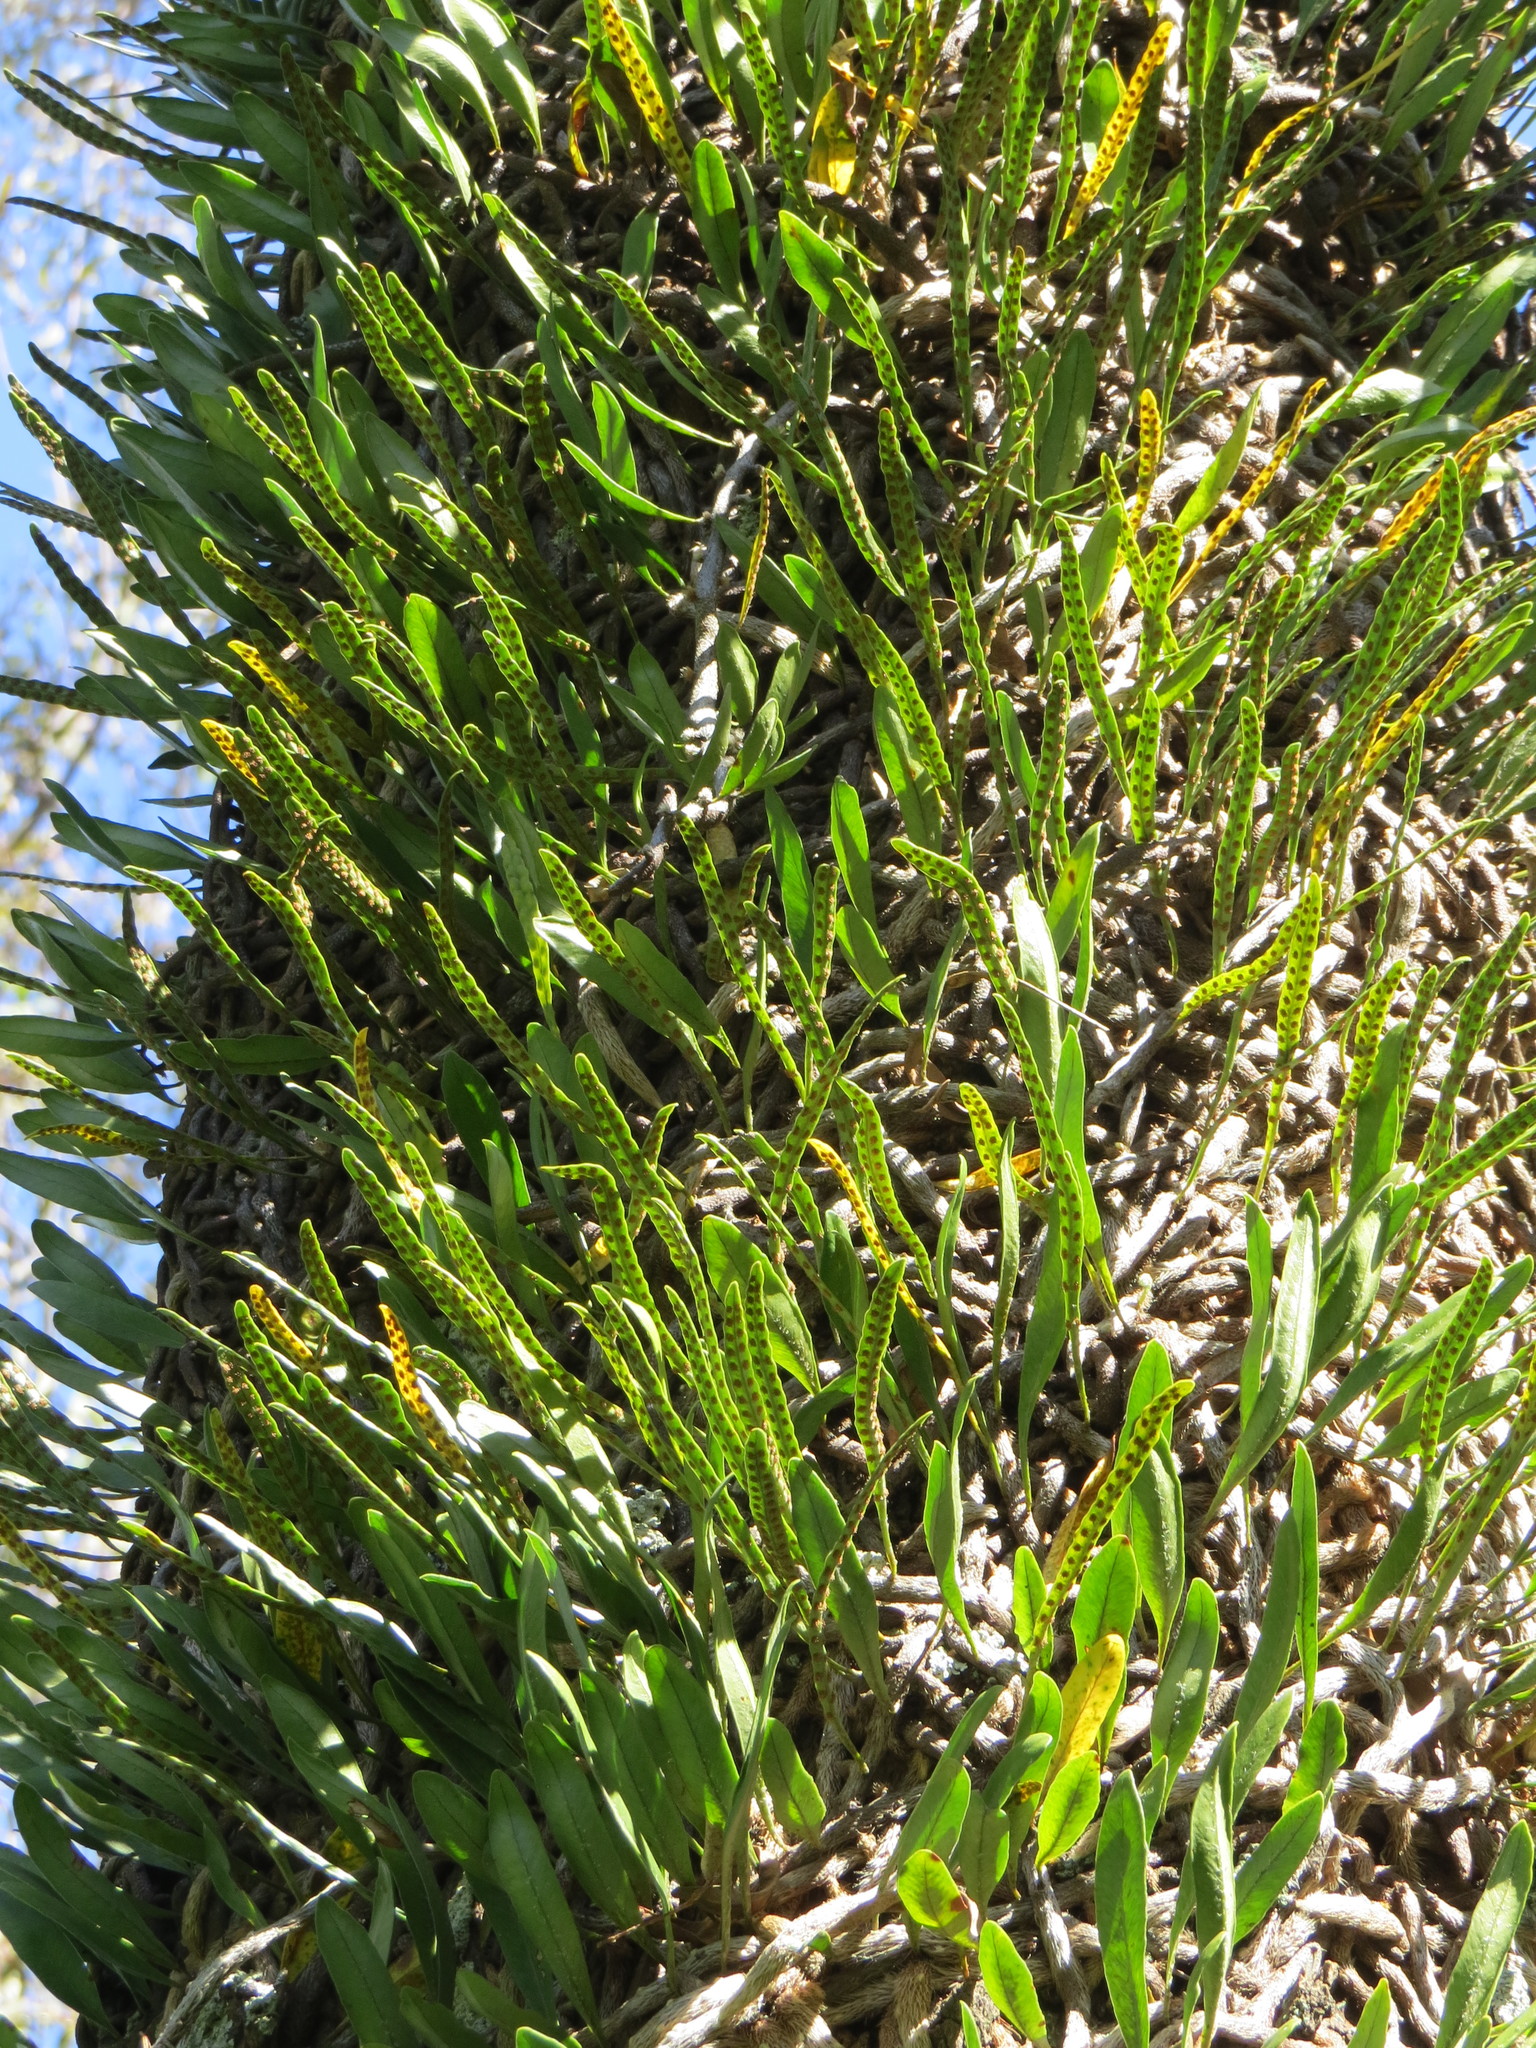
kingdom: Plantae
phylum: Tracheophyta
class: Polypodiopsida
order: Polypodiales
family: Polypodiaceae
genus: Microgramma
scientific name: Microgramma mortoniana
